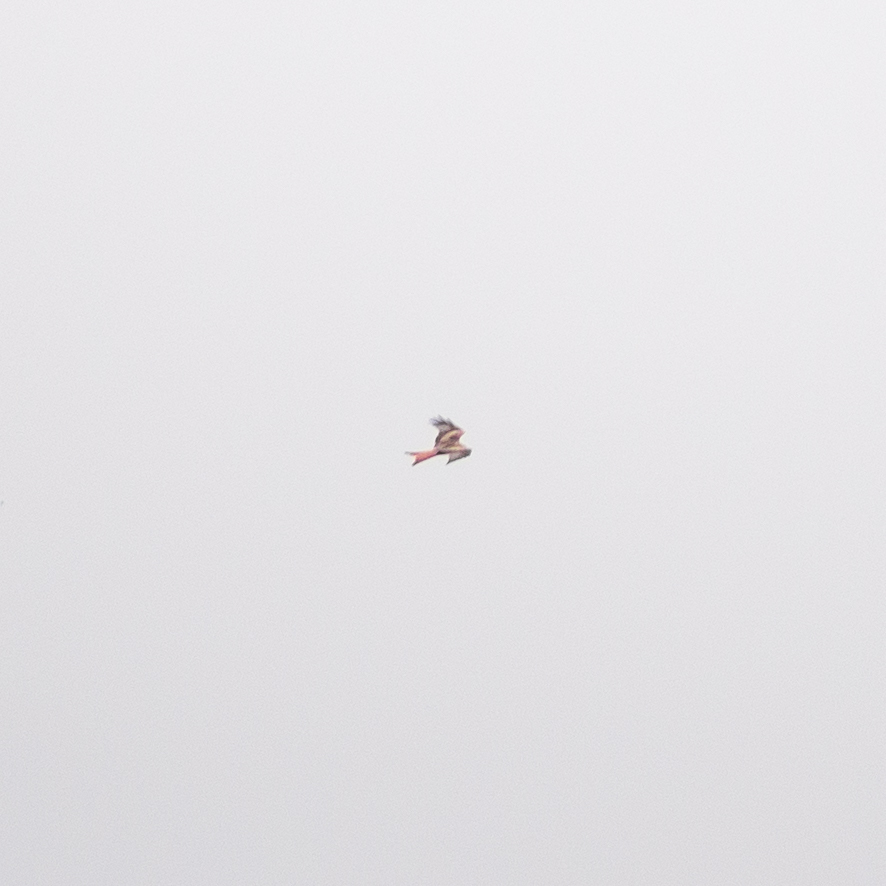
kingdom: Animalia
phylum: Chordata
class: Aves
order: Accipitriformes
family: Accipitridae
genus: Milvus
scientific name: Milvus milvus
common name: Red kite
